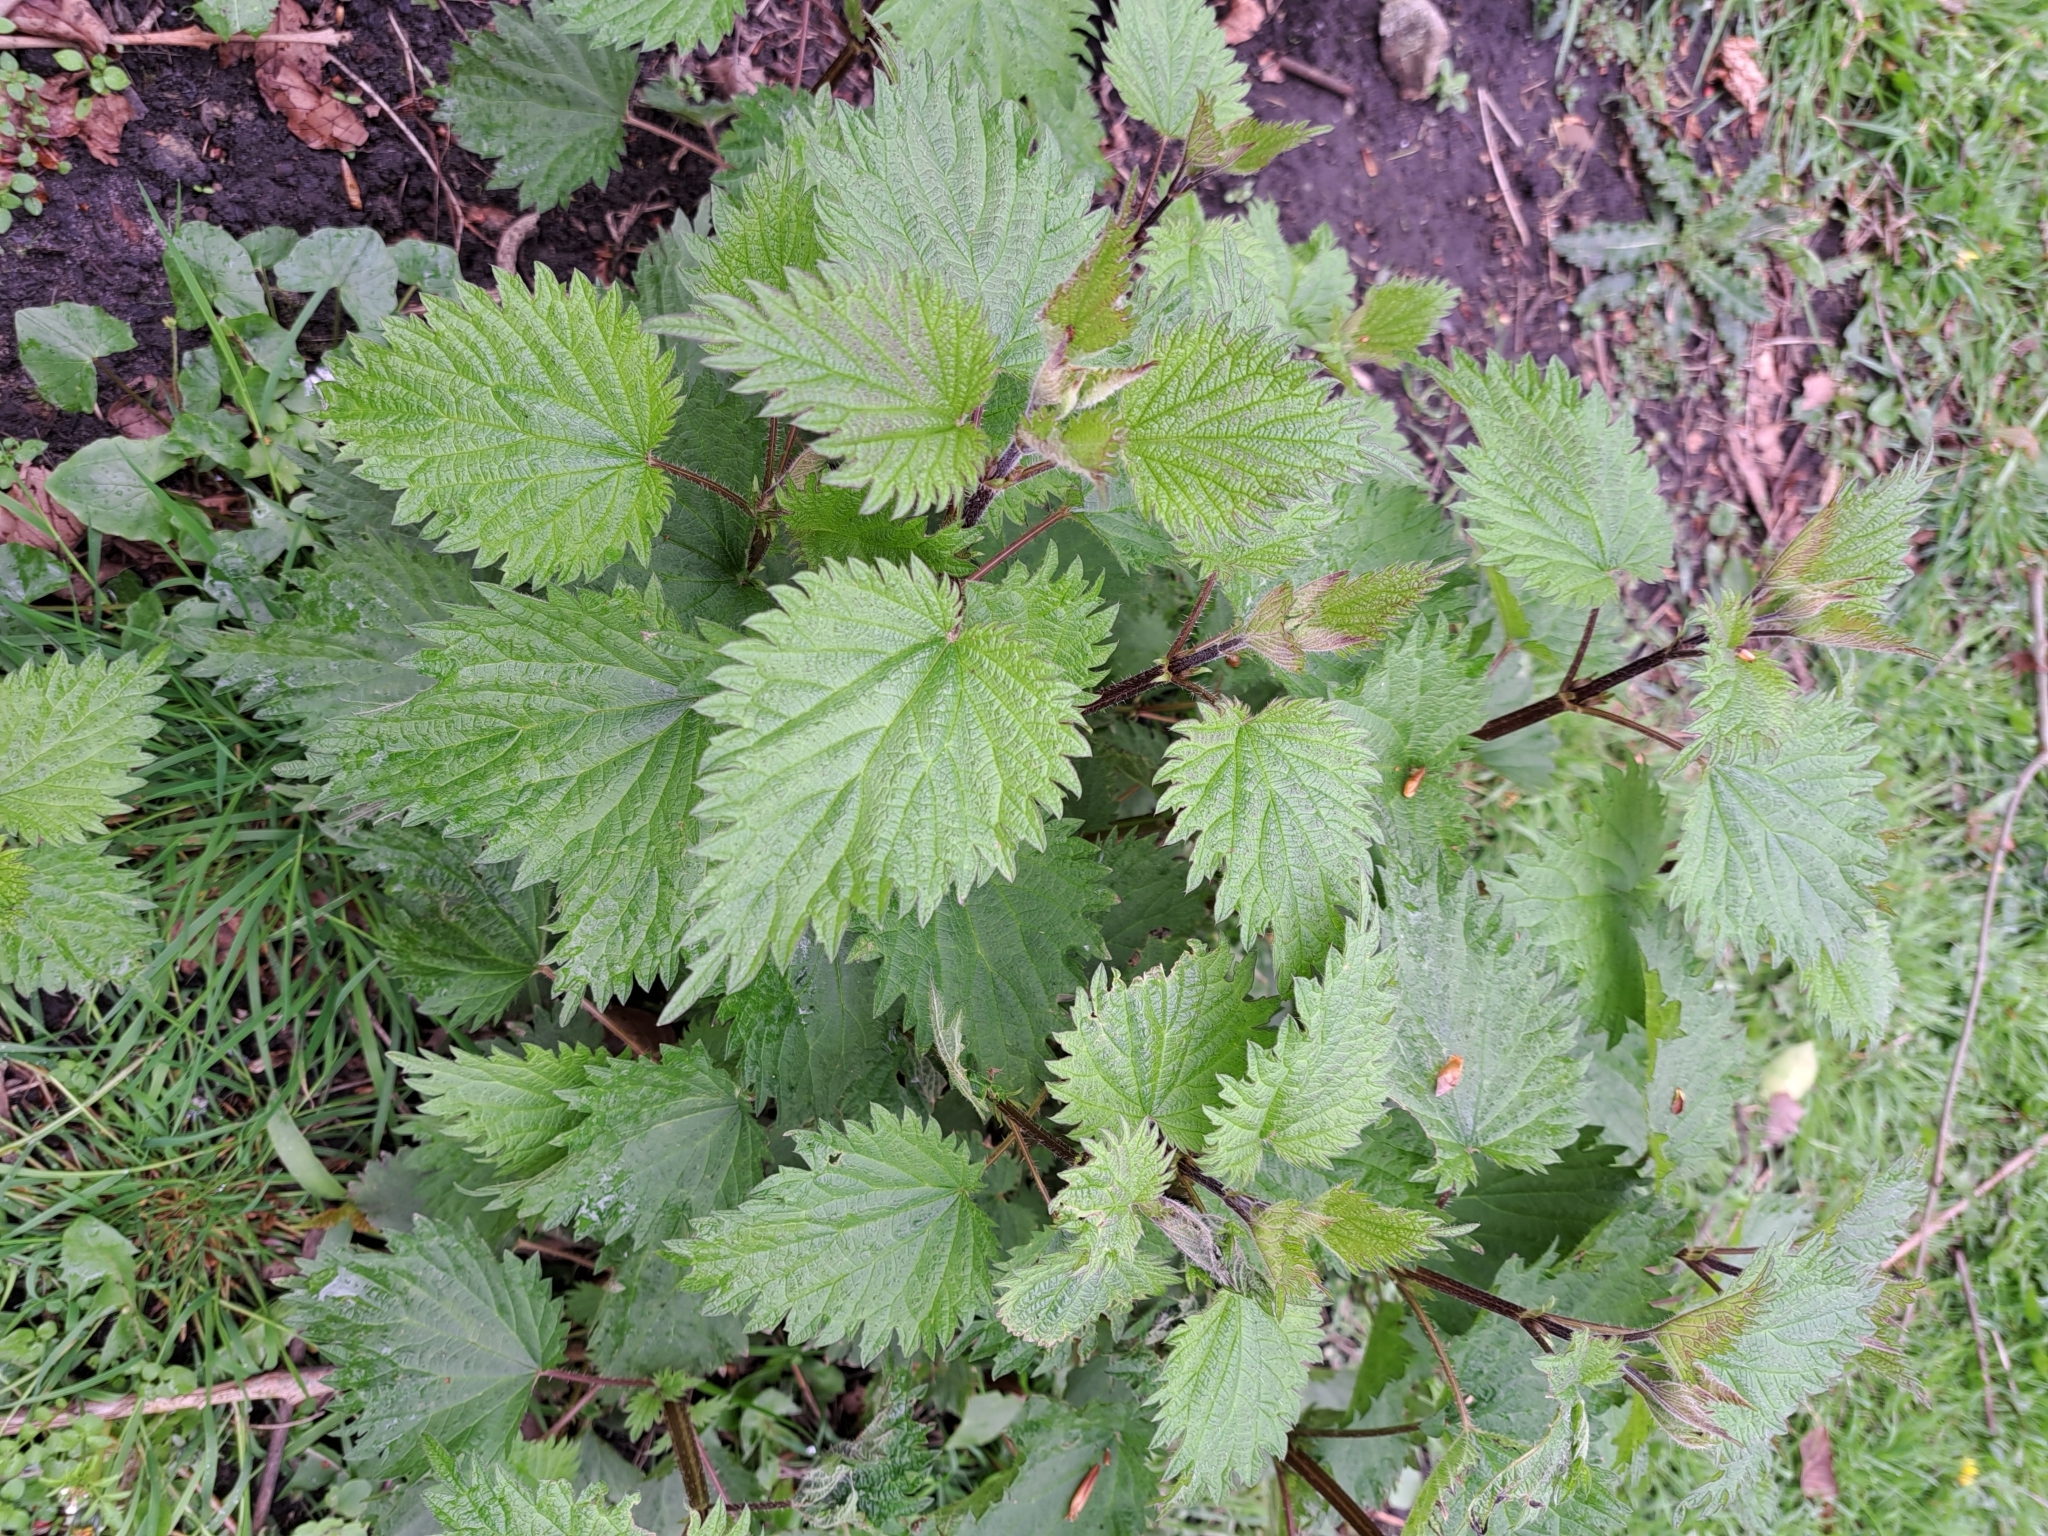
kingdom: Plantae
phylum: Tracheophyta
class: Magnoliopsida
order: Rosales
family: Urticaceae
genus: Urtica
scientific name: Urtica dioica
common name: Common nettle
